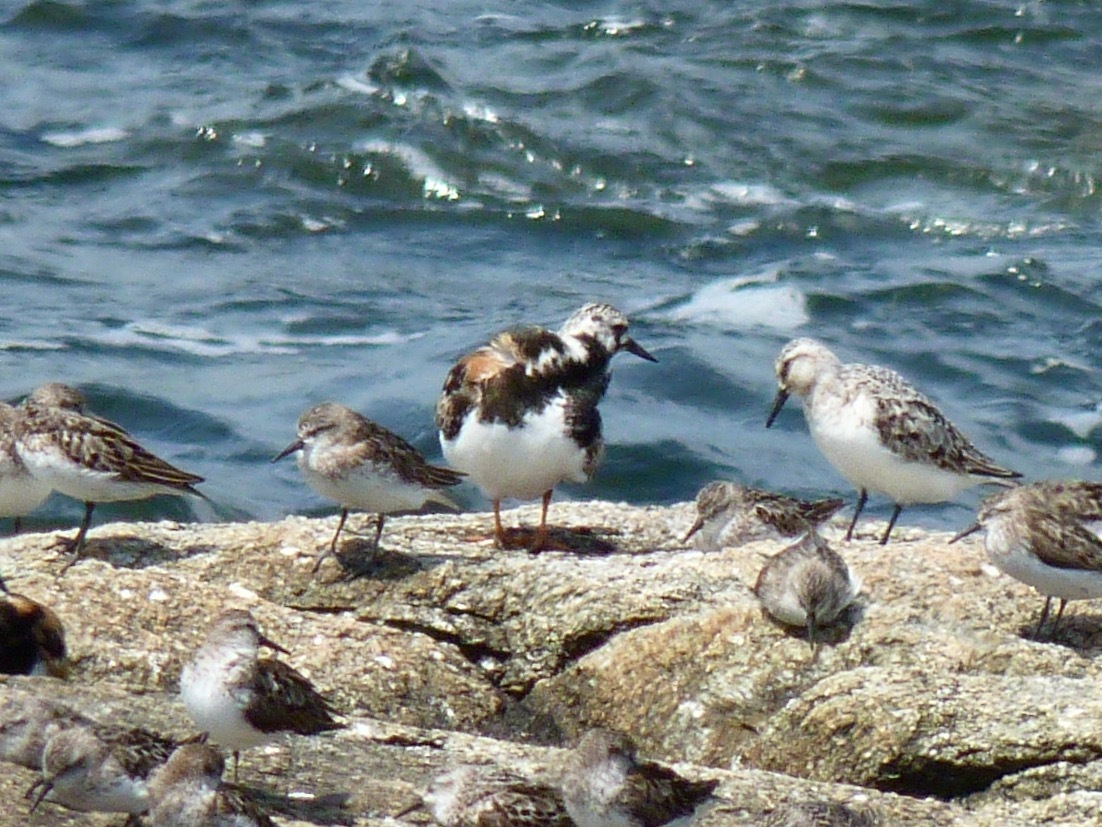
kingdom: Animalia
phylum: Chordata
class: Aves
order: Charadriiformes
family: Scolopacidae
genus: Arenaria
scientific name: Arenaria interpres
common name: Ruddy turnstone
